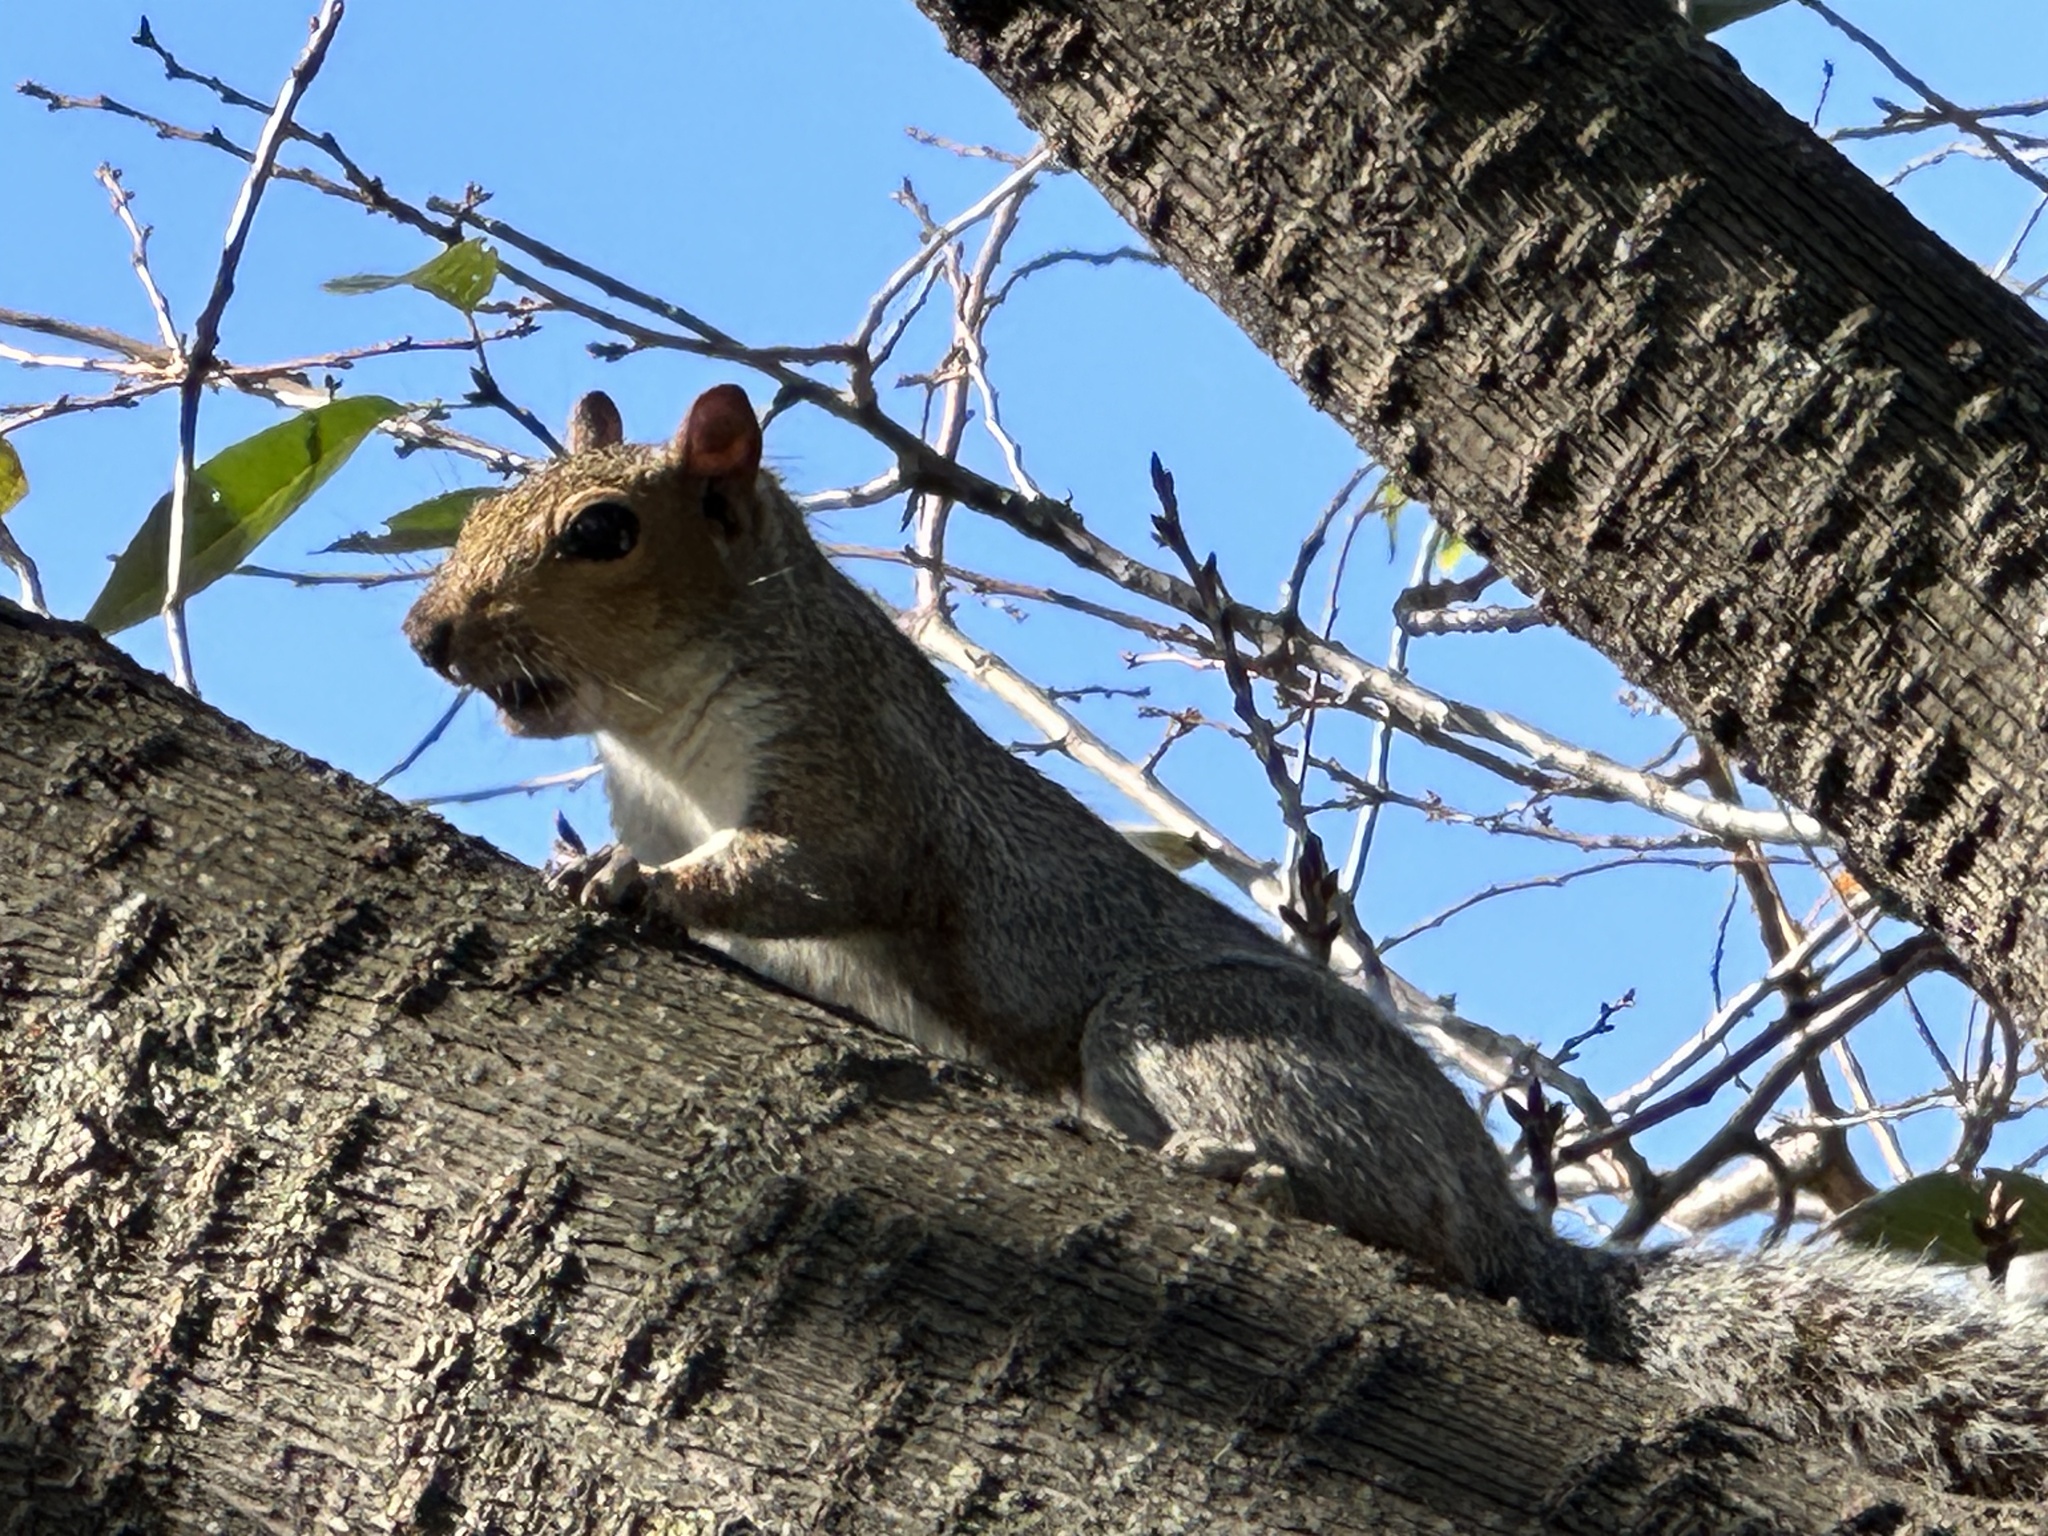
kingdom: Animalia
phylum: Chordata
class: Mammalia
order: Rodentia
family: Sciuridae
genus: Sciurus
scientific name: Sciurus carolinensis
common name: Eastern gray squirrel
